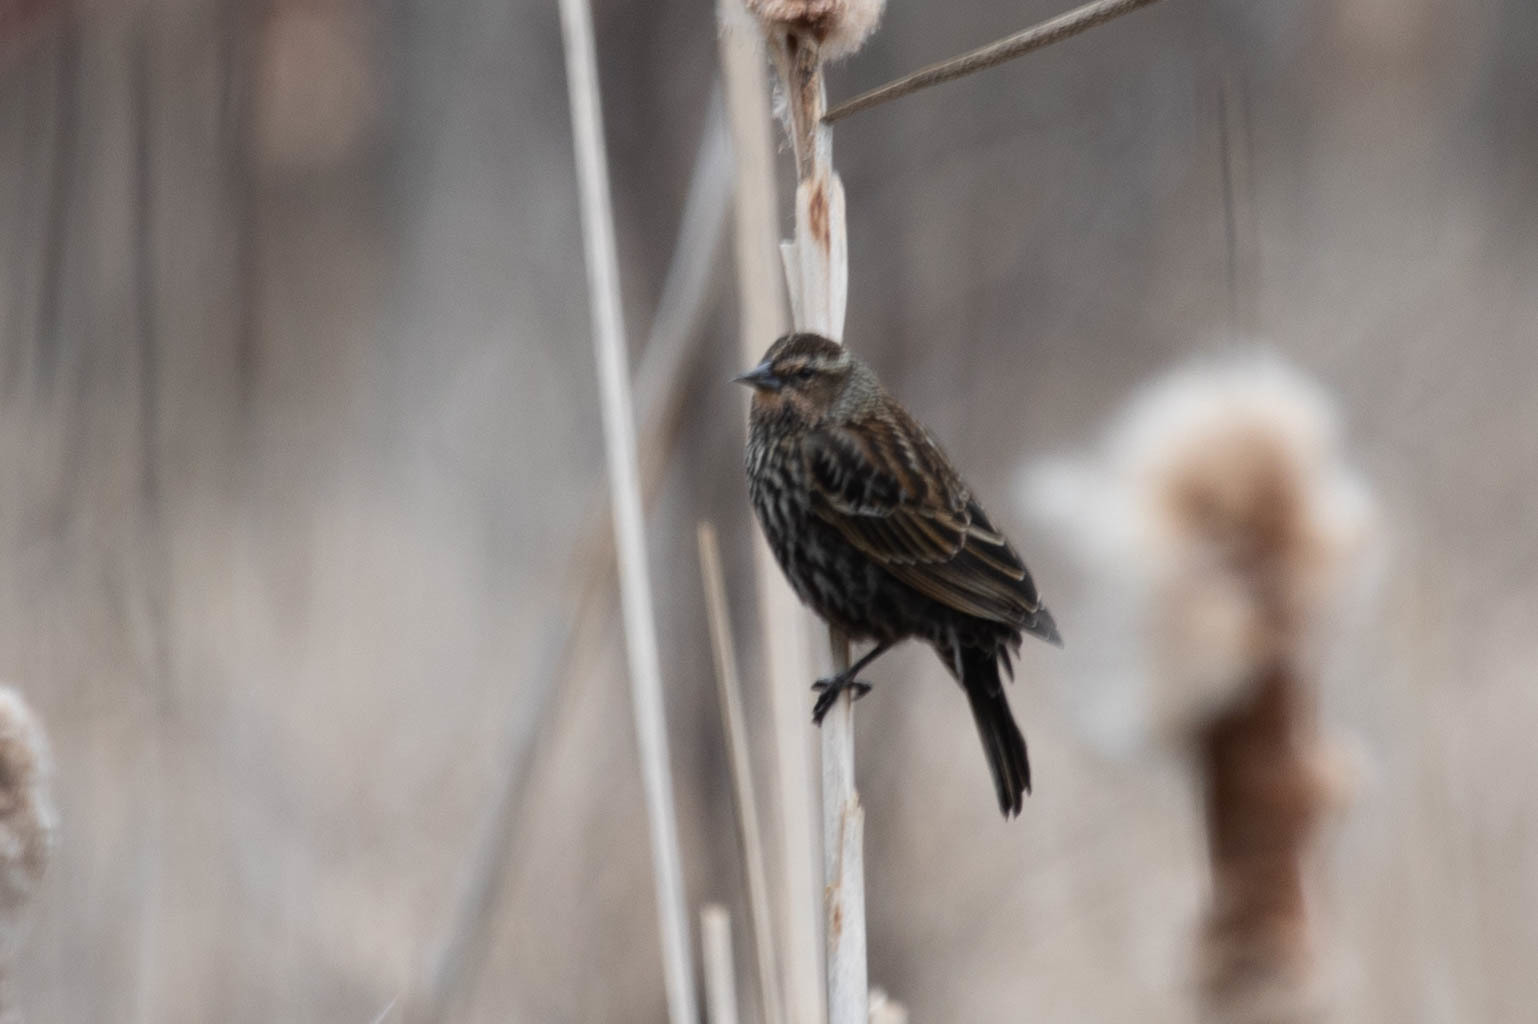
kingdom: Animalia
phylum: Chordata
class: Aves
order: Passeriformes
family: Icteridae
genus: Agelaius
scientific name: Agelaius phoeniceus
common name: Red-winged blackbird
